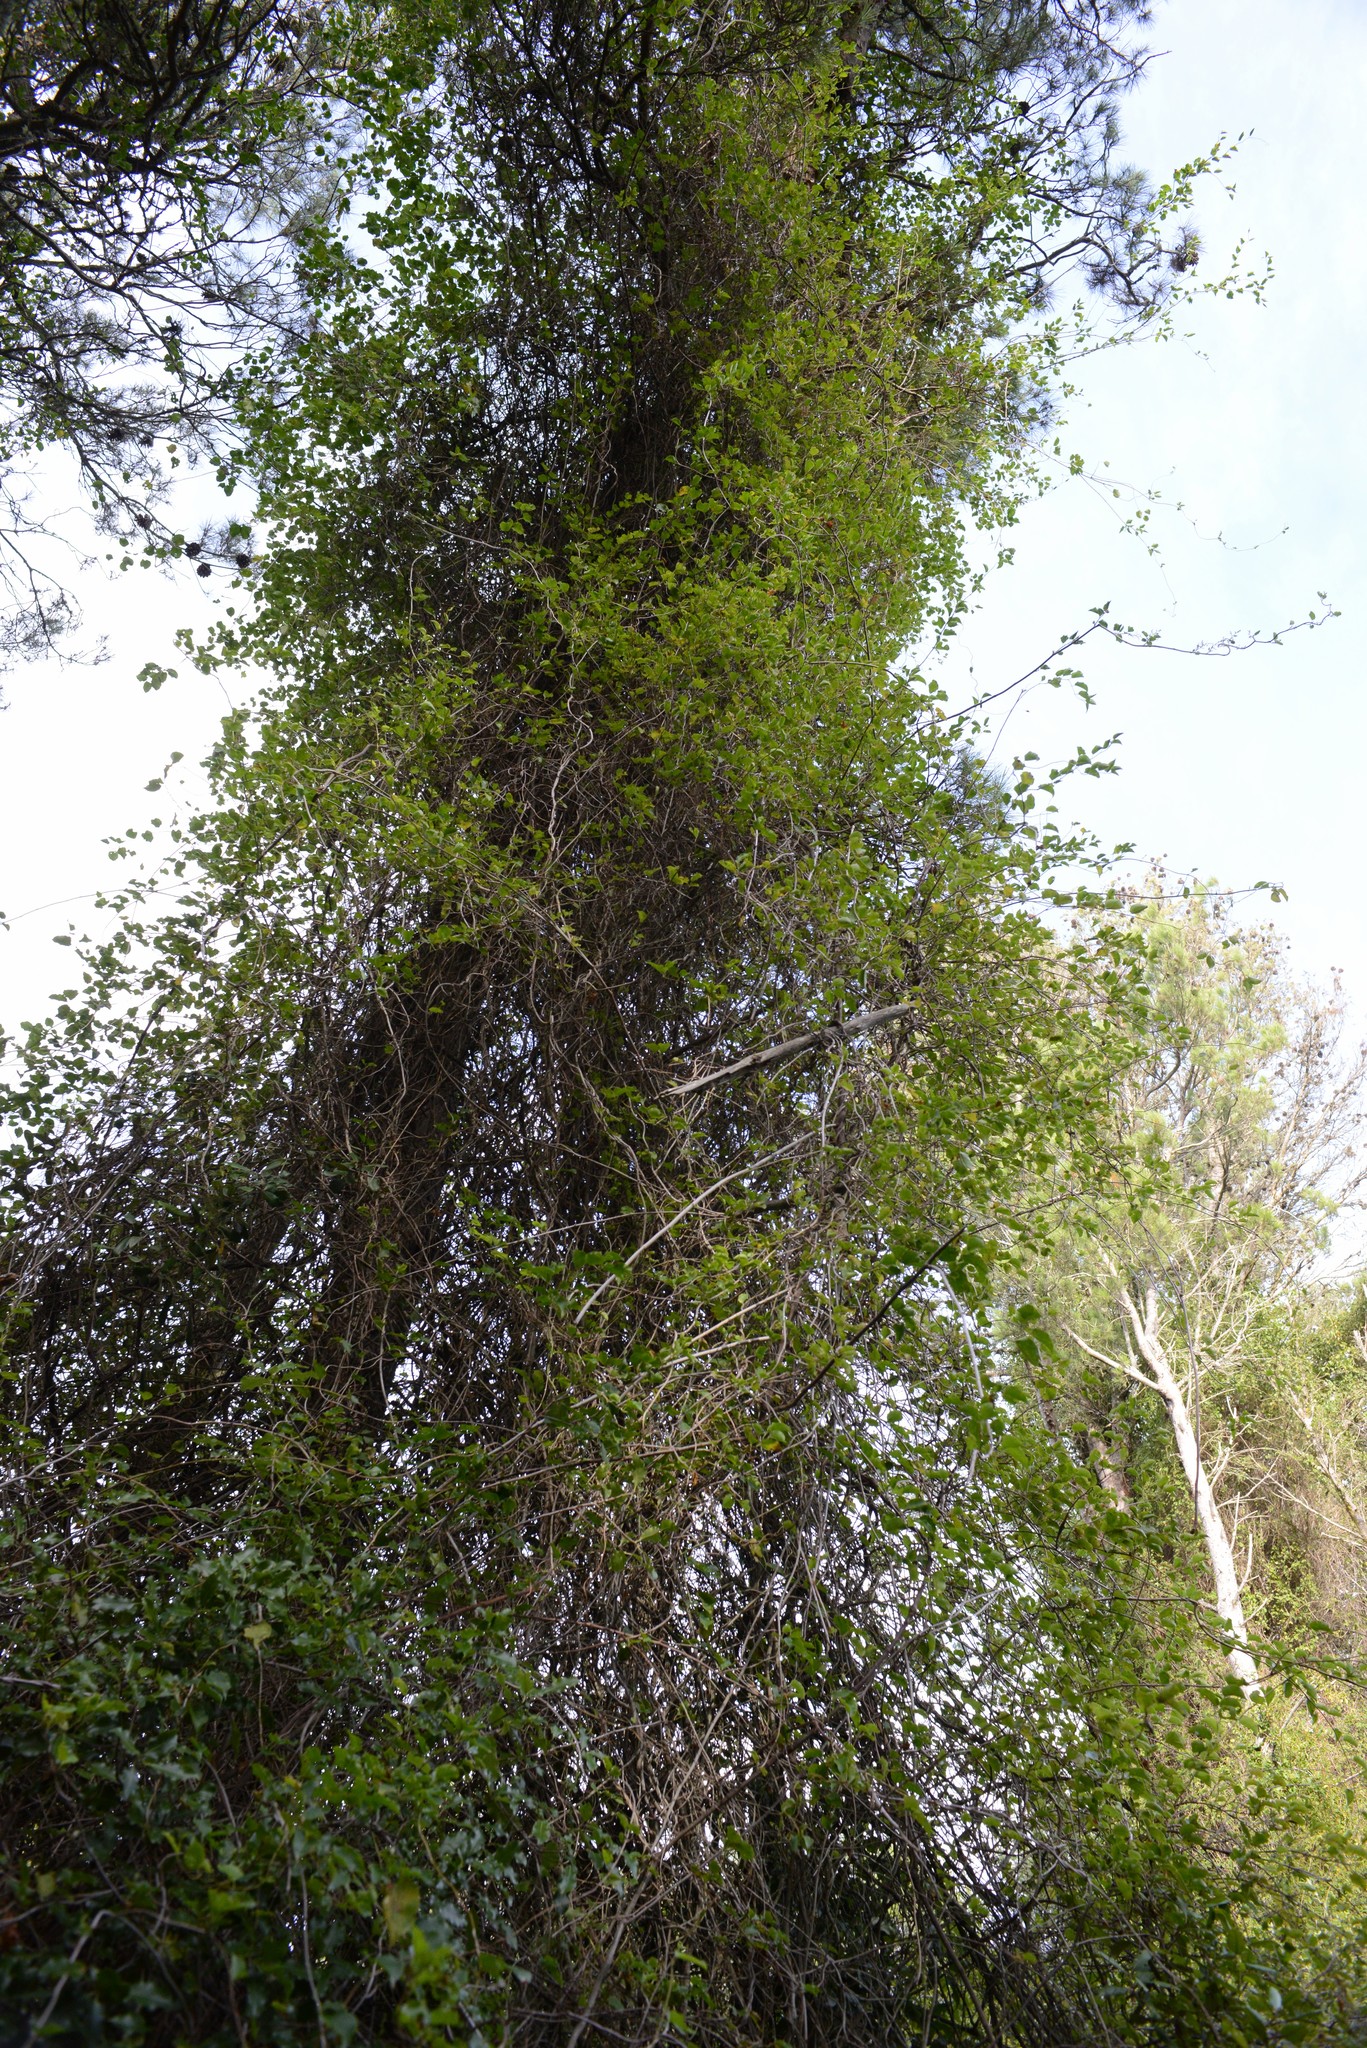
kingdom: Plantae
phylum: Tracheophyta
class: Magnoliopsida
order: Caryophyllales
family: Polygonaceae
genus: Muehlenbeckia
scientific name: Muehlenbeckia australis
